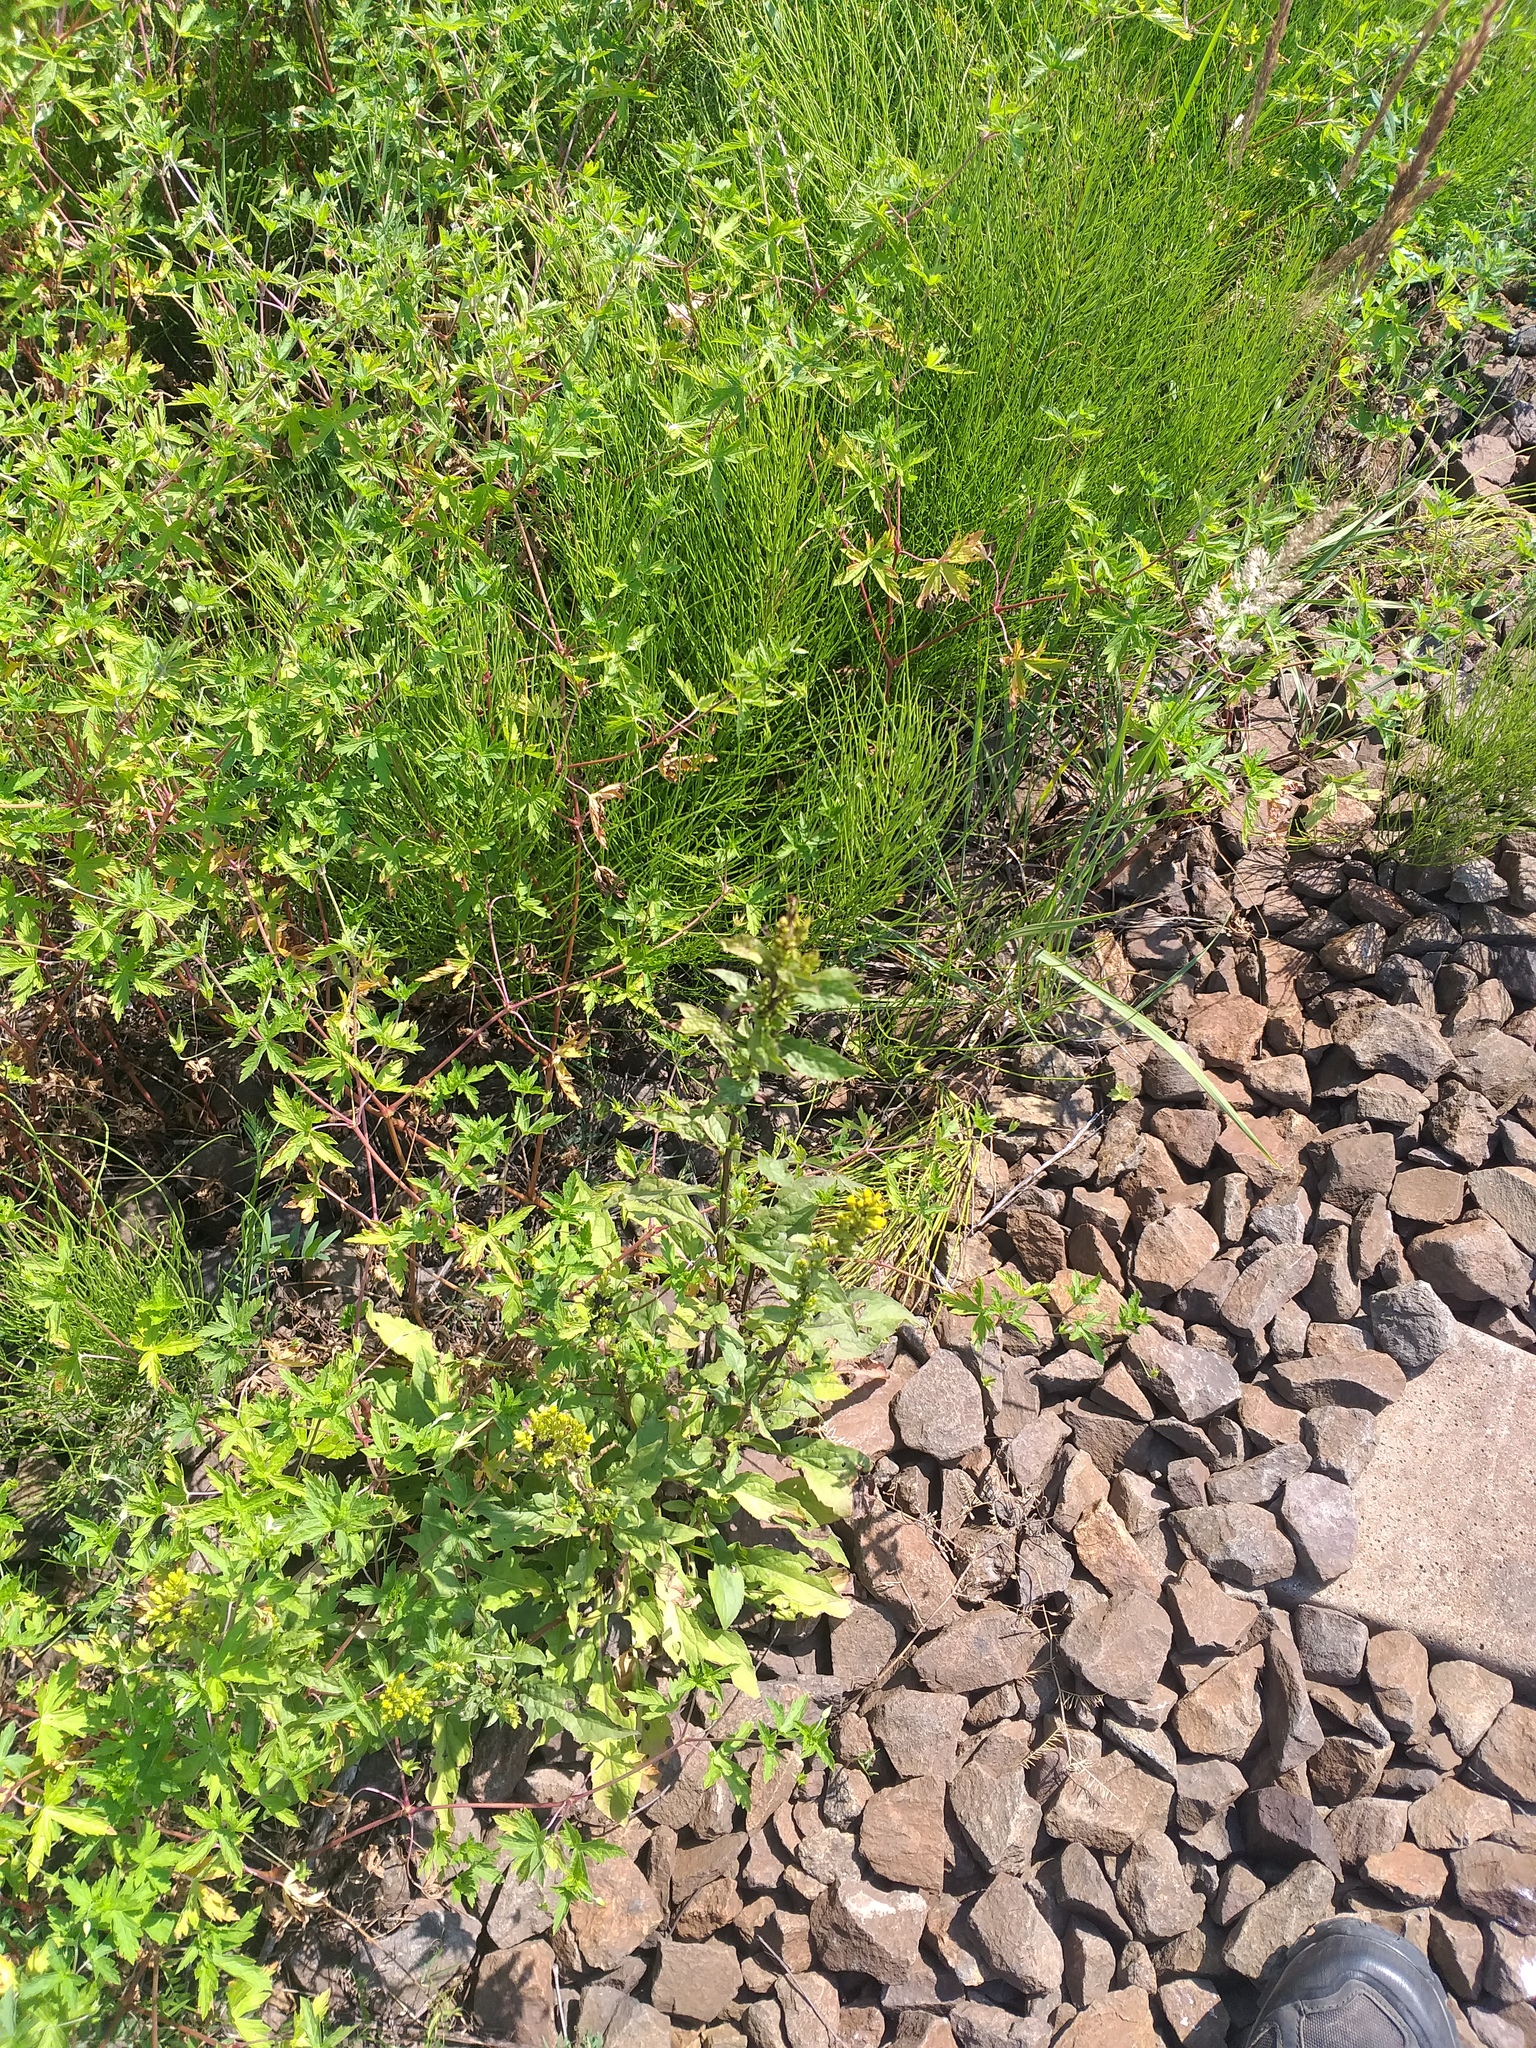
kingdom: Plantae
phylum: Tracheophyta
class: Magnoliopsida
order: Asterales
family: Asteraceae
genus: Solidago
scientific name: Solidago virgaurea
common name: Goldenrod
